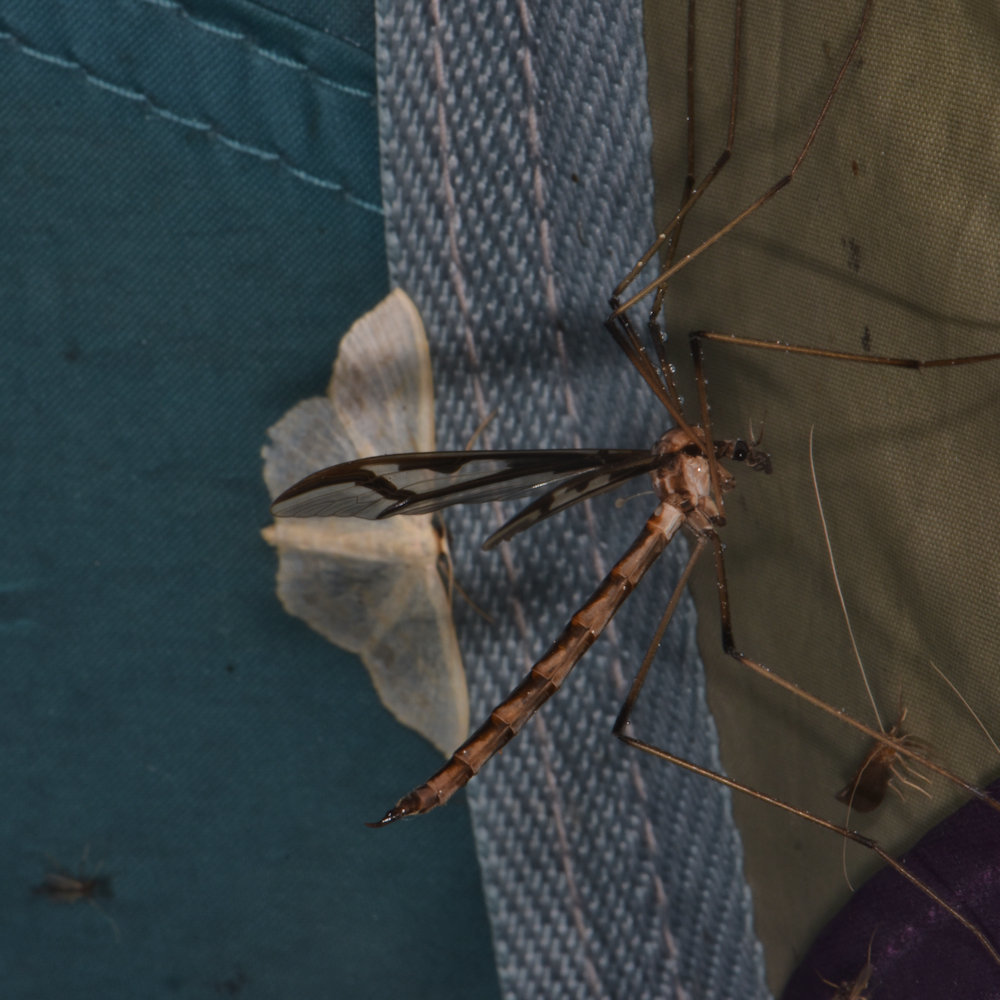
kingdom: Animalia
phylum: Arthropoda
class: Insecta
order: Diptera
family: Pediciidae
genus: Pedicia
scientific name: Pedicia albivitta
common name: Giant eastern crane fly
